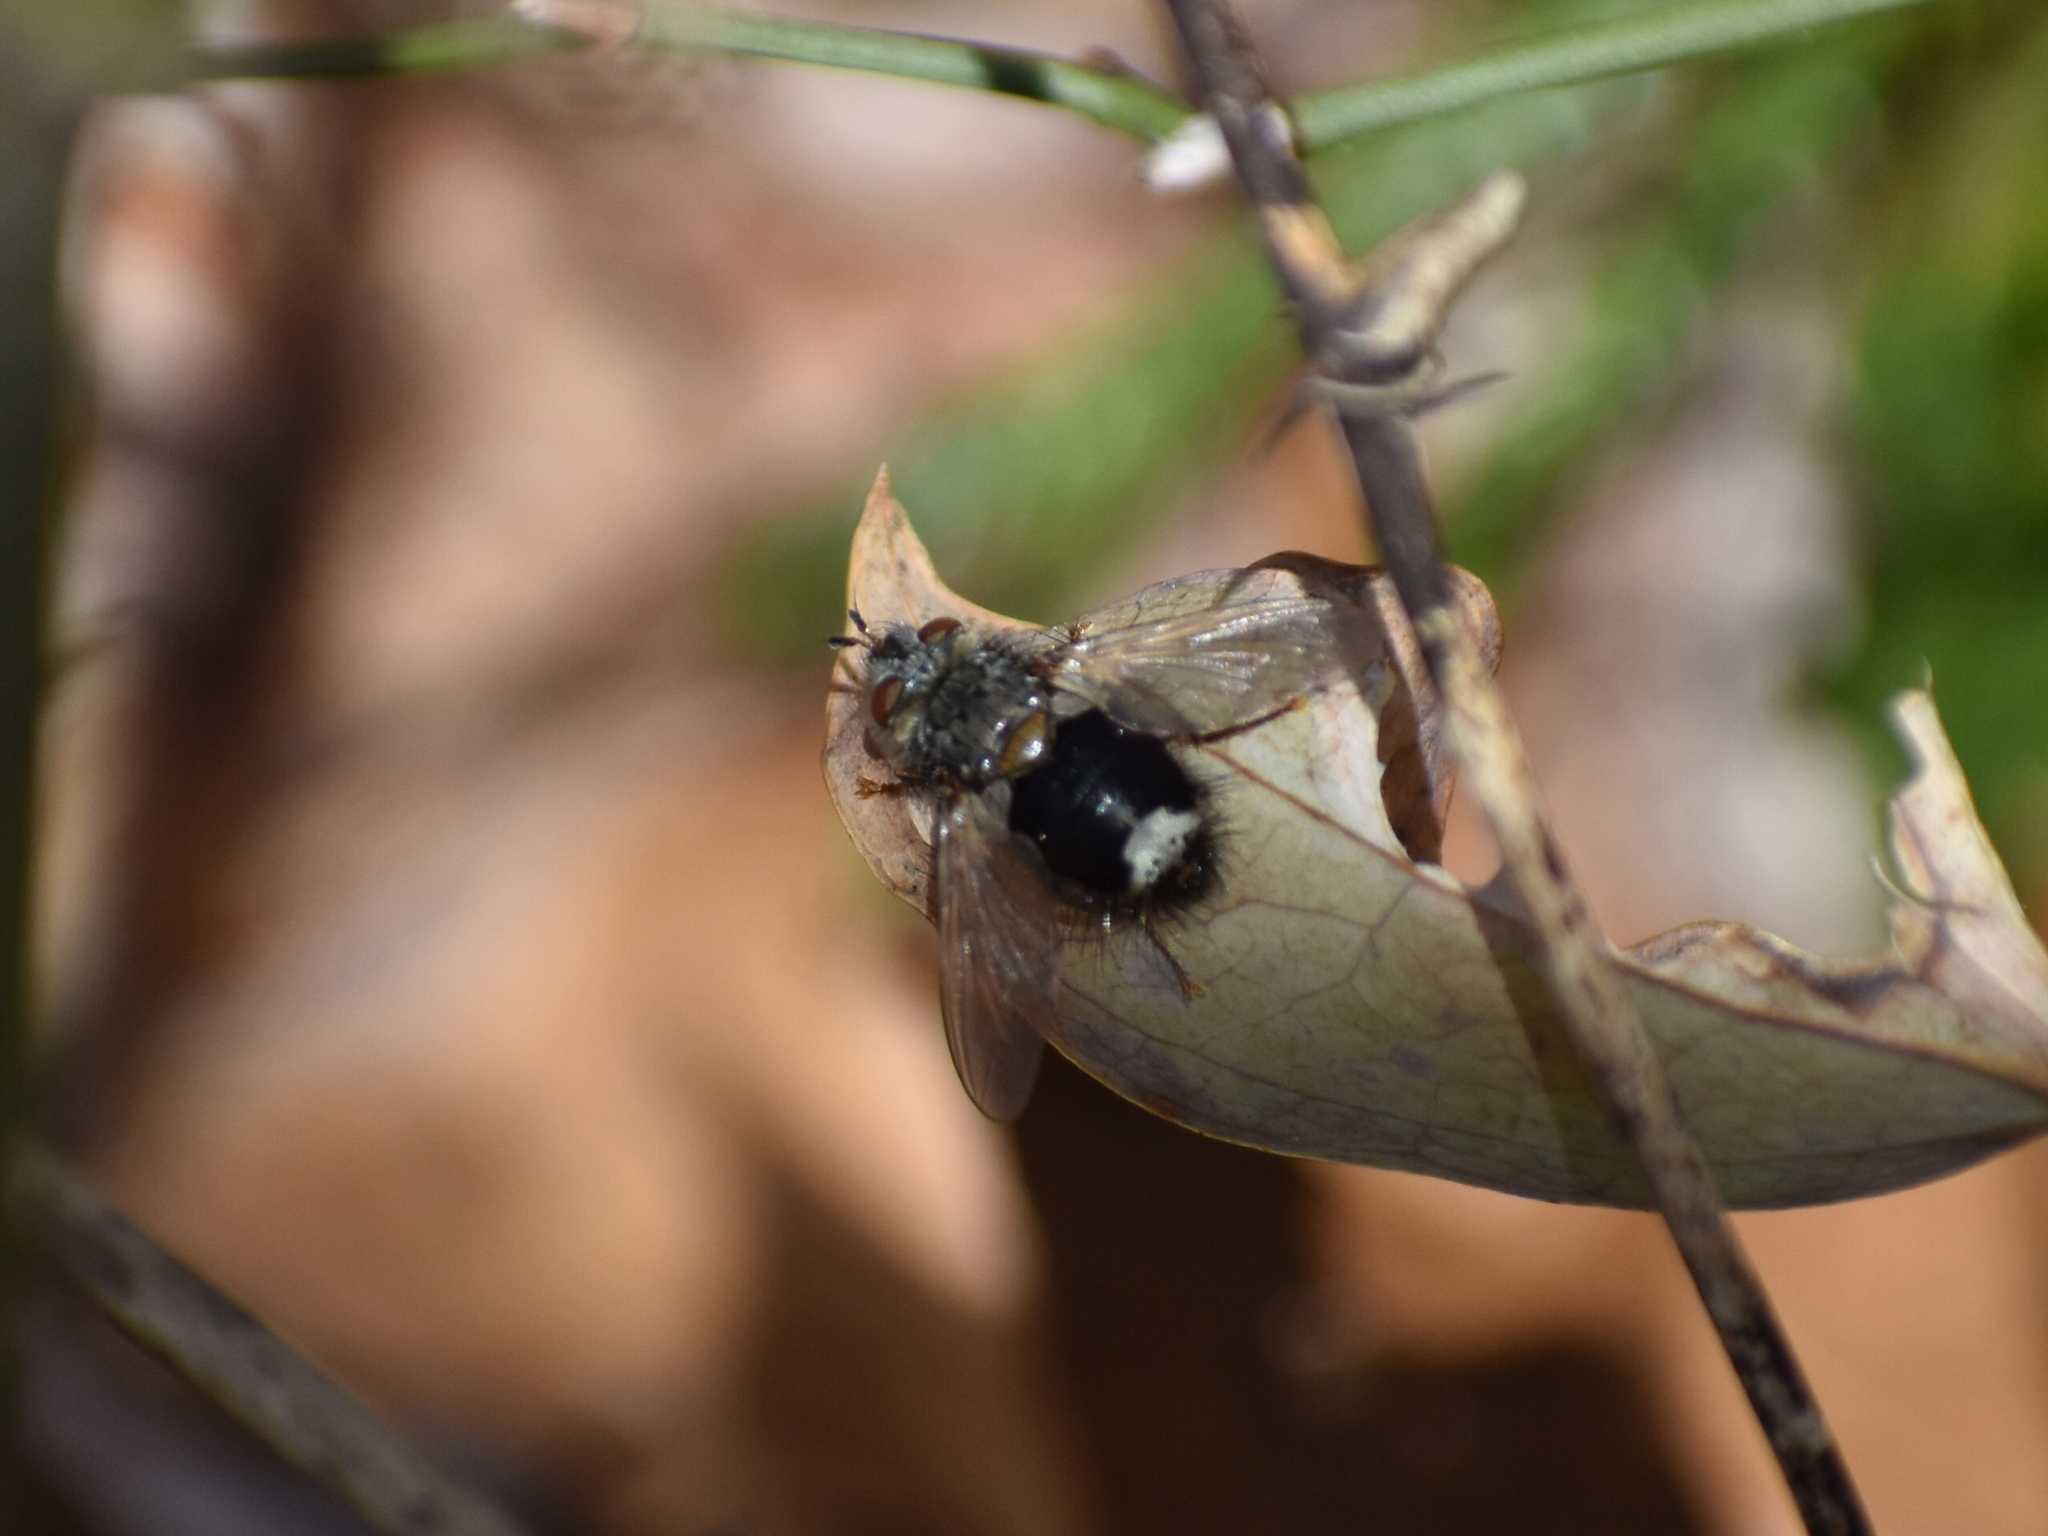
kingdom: Animalia
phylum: Arthropoda
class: Insecta
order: Diptera
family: Tachinidae
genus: Epalpus
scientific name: Epalpus signifer
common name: Early tachinid fly
